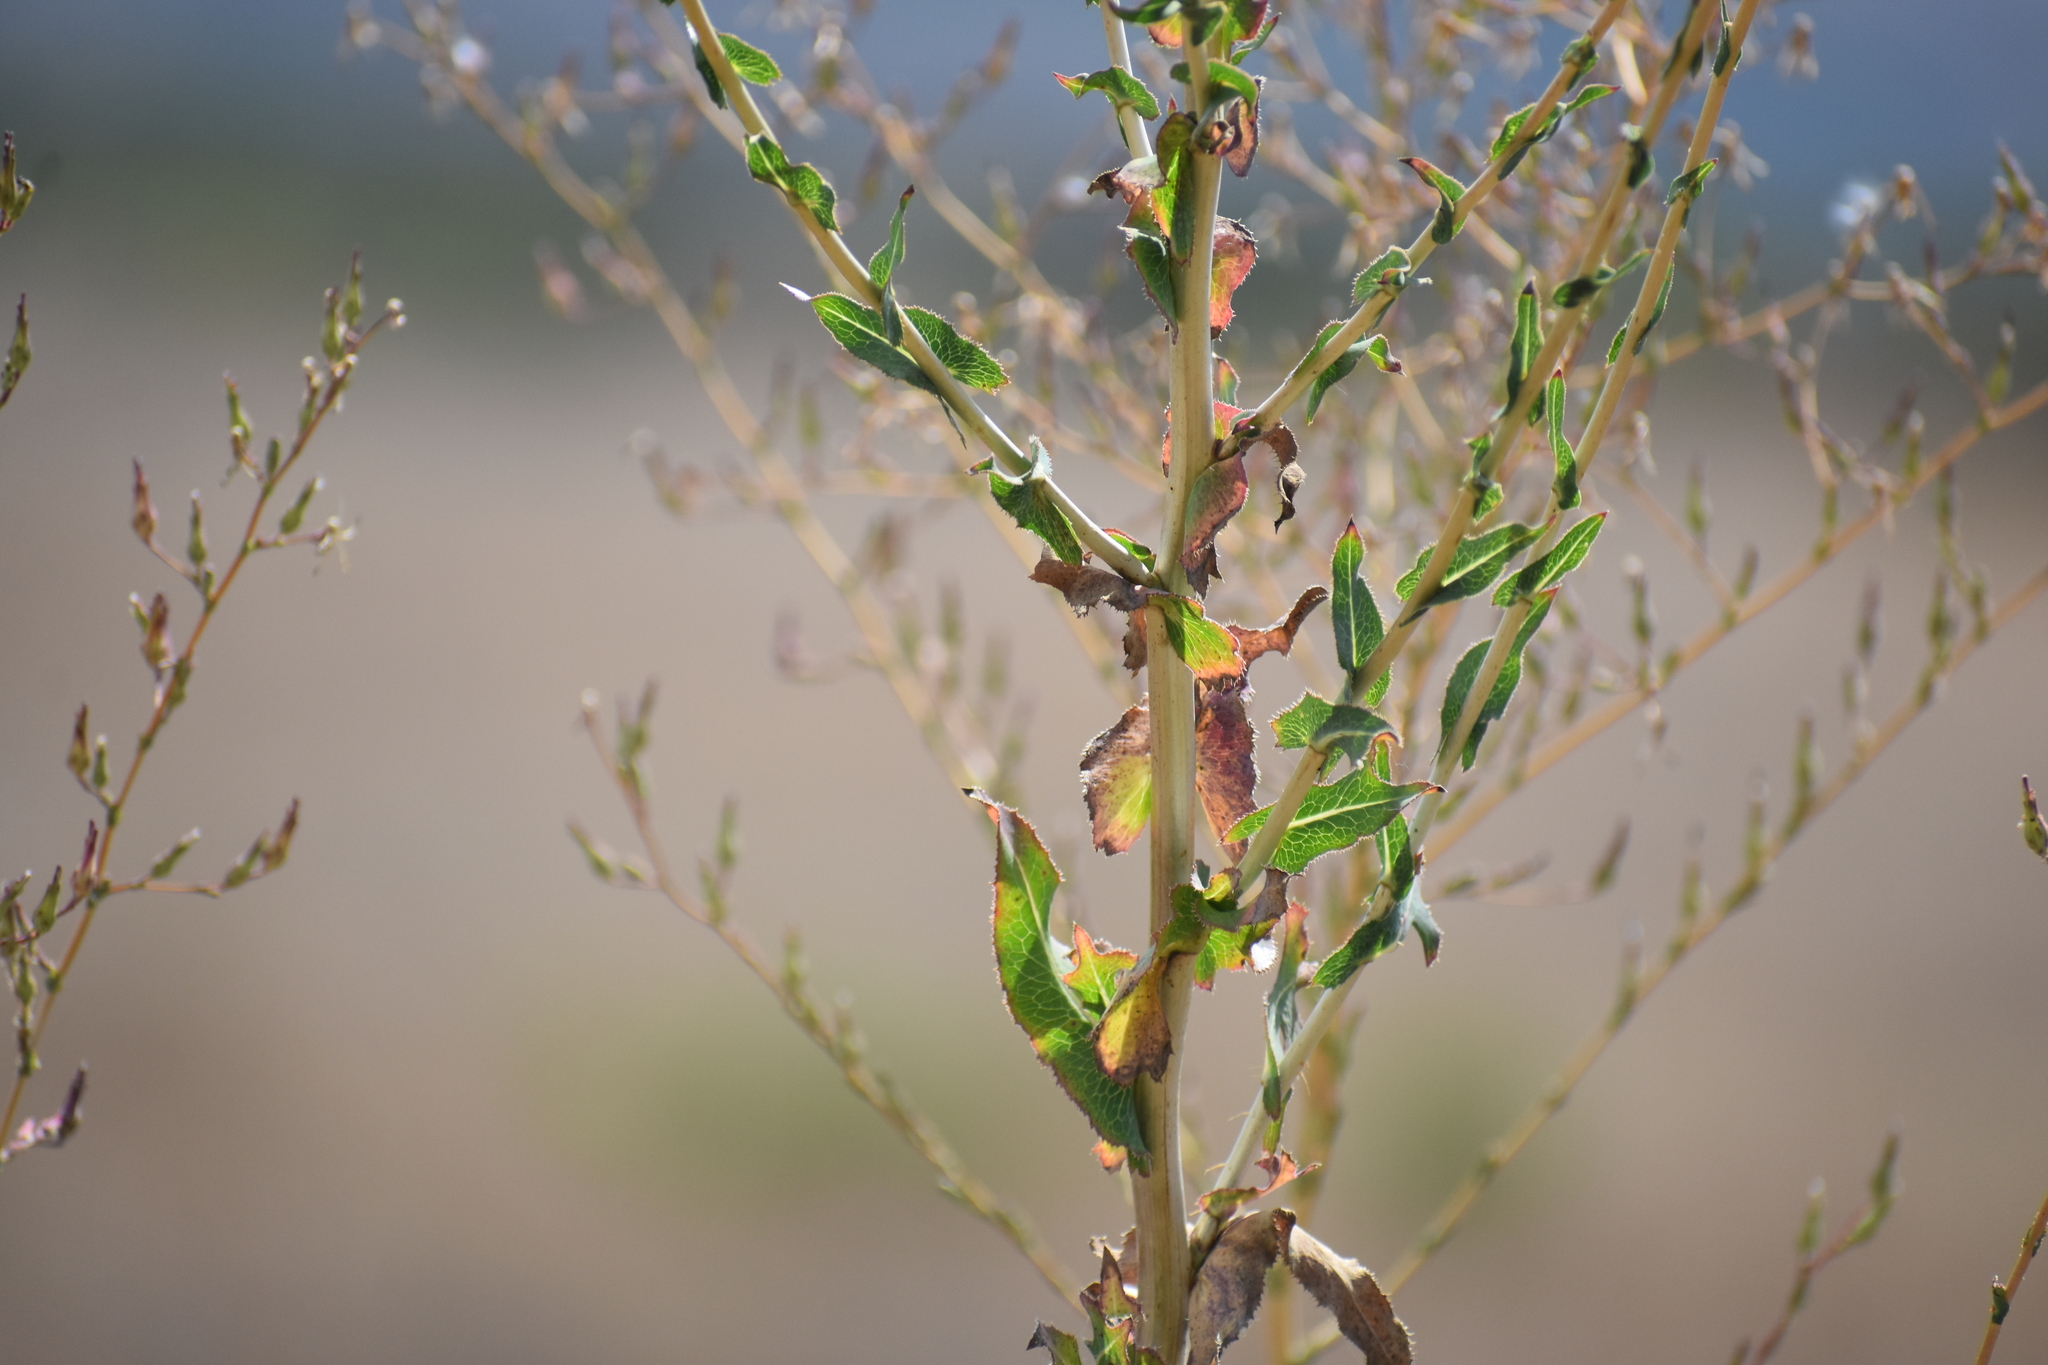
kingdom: Plantae
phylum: Tracheophyta
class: Magnoliopsida
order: Asterales
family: Asteraceae
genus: Lactuca
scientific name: Lactuca serriola
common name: Prickly lettuce
